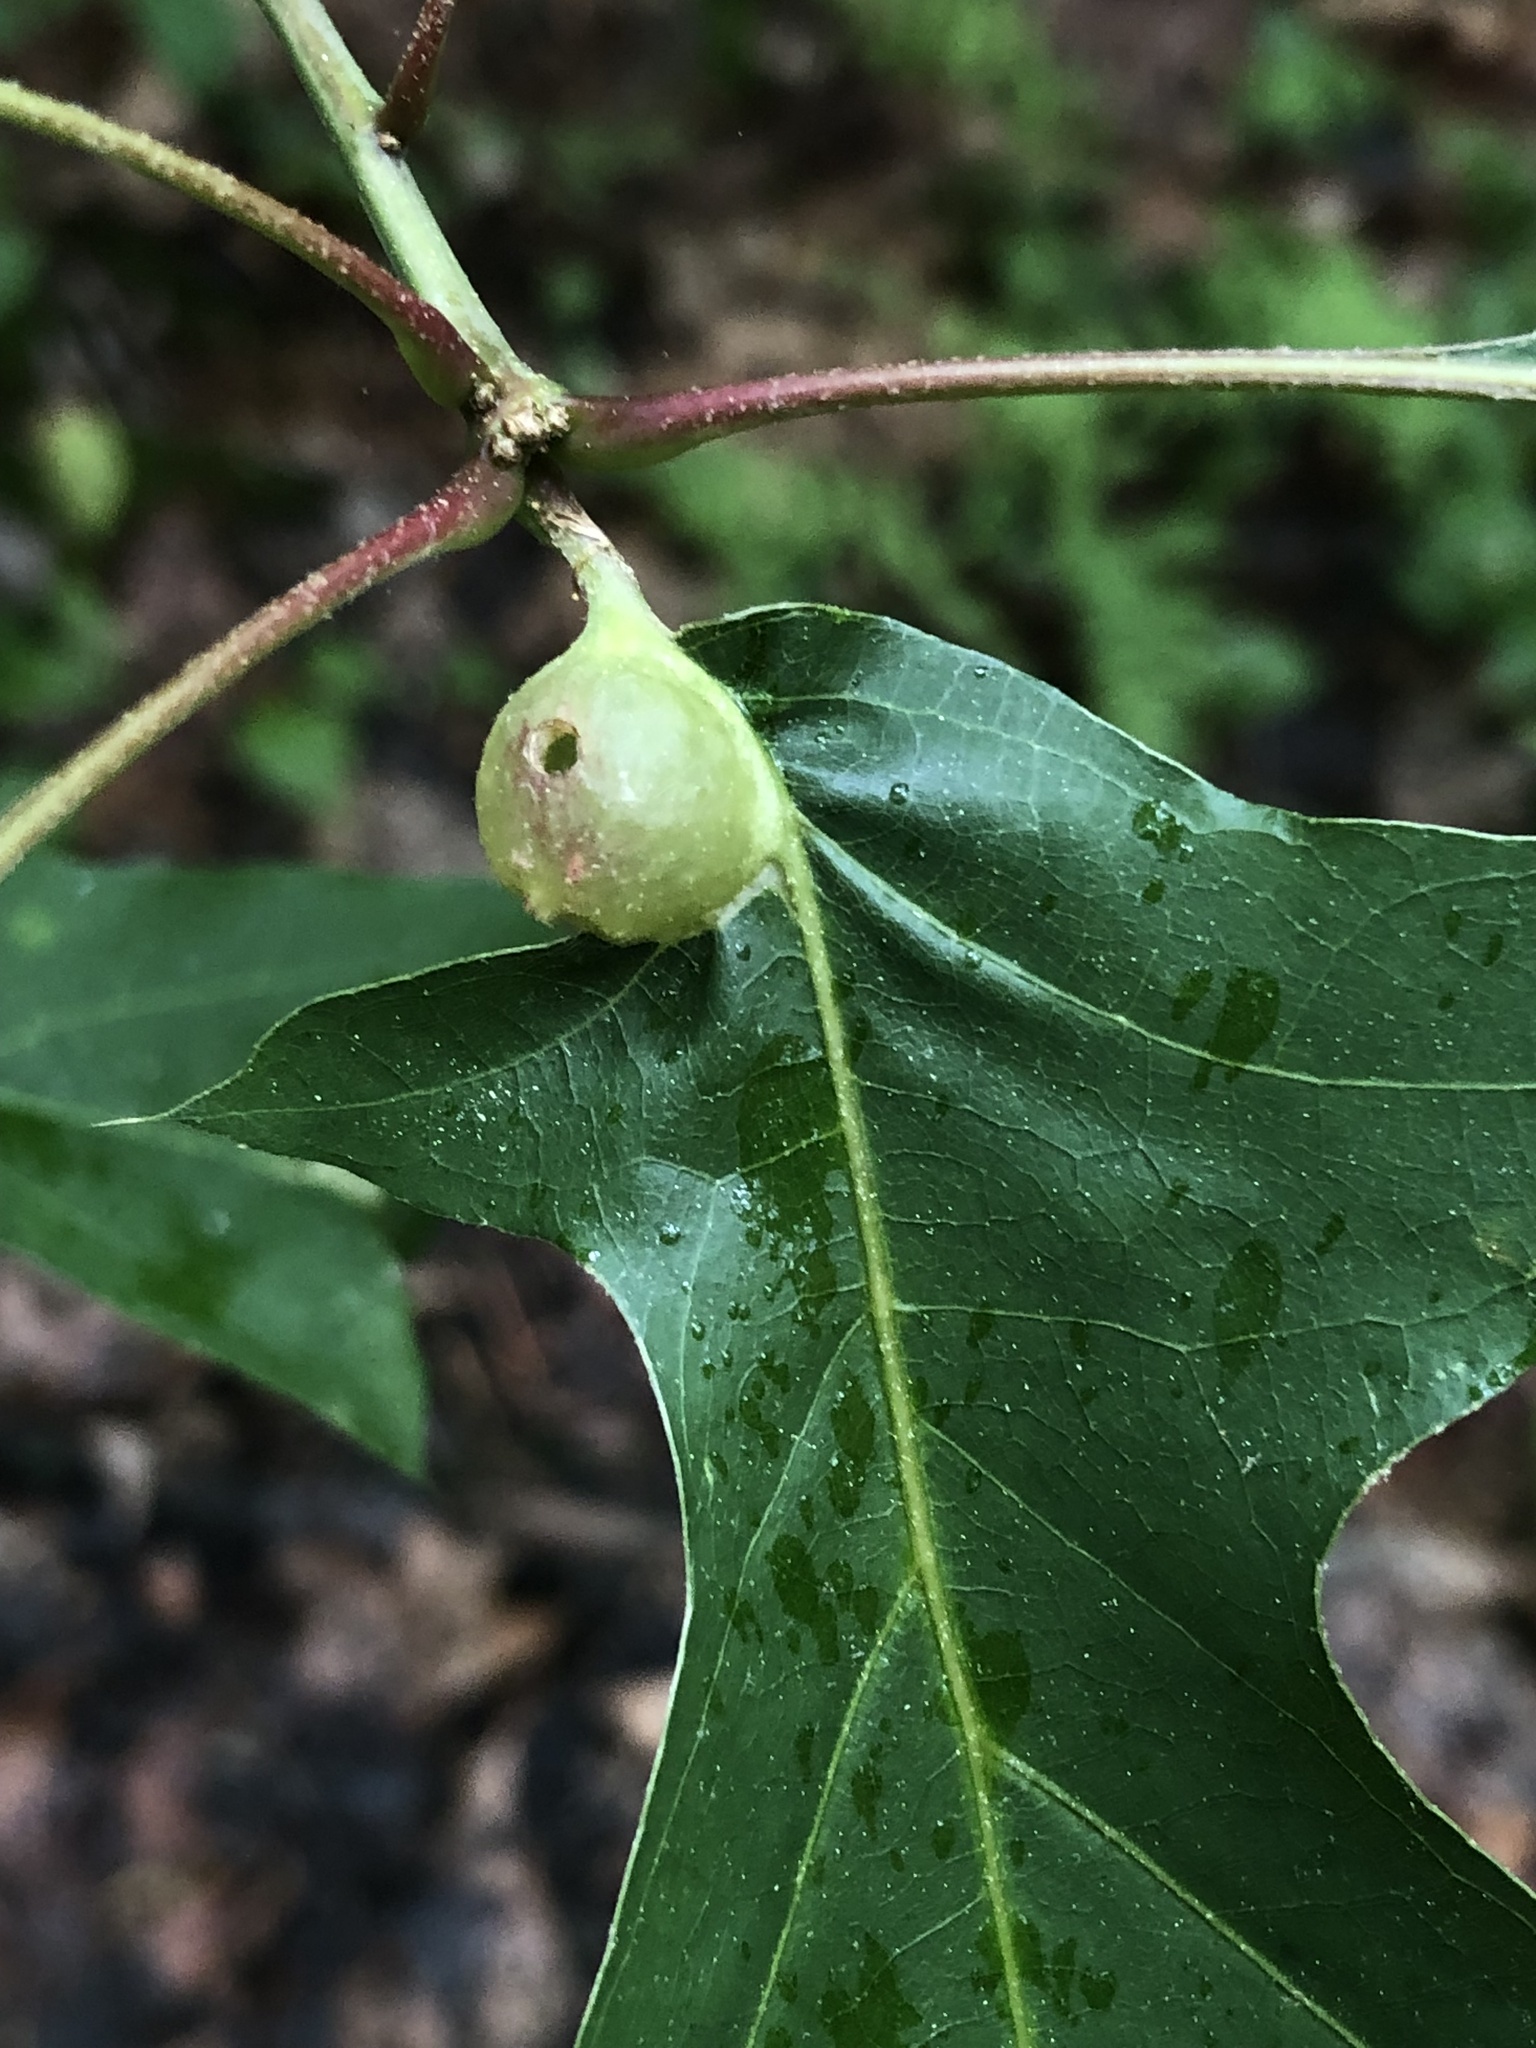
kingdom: Animalia
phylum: Arthropoda
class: Insecta
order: Hymenoptera
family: Cynipidae
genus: Dryocosmus
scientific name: Dryocosmus quercuspalustris
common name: Succulent oak gall wasp
